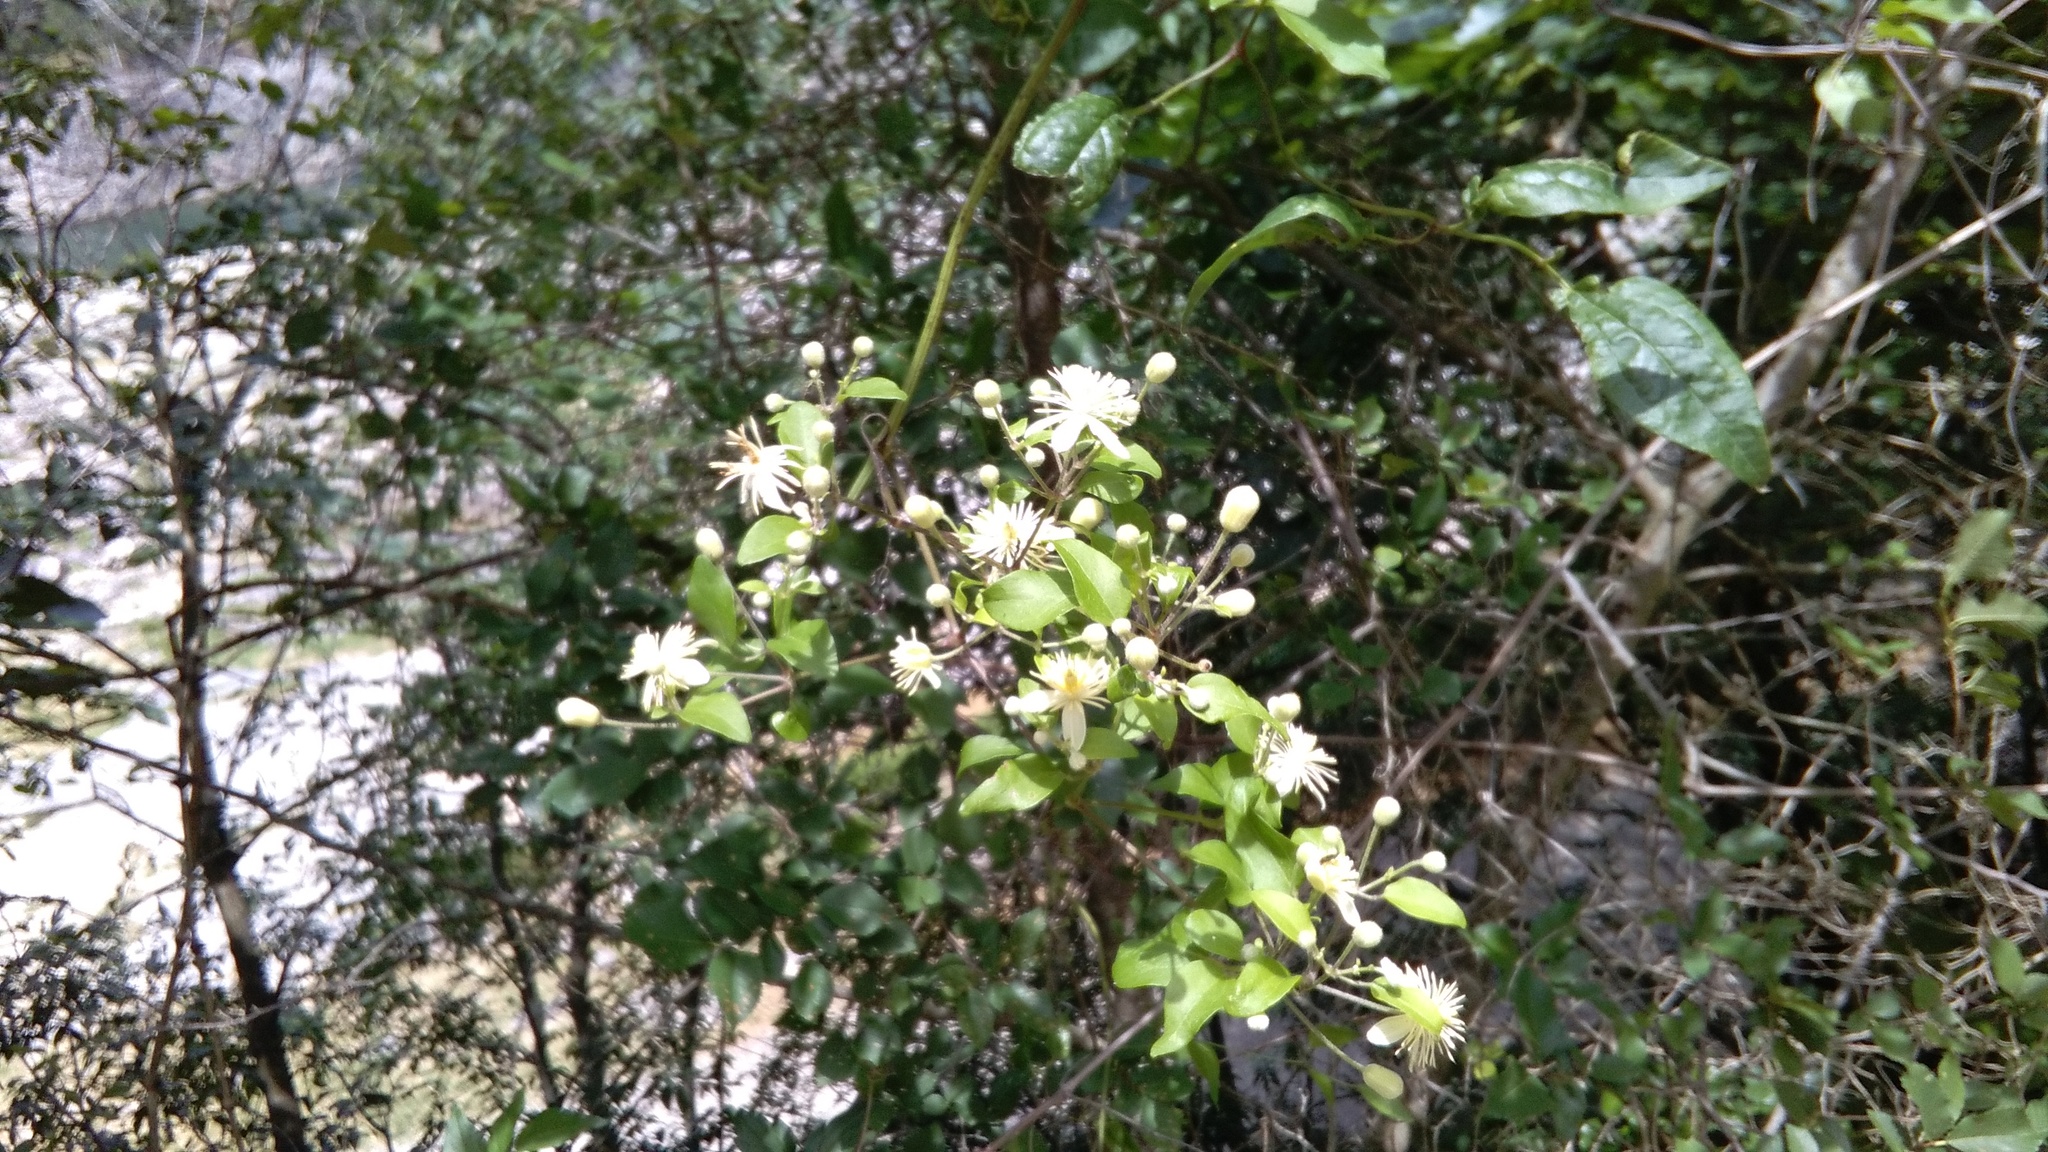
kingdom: Plantae
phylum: Tracheophyta
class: Magnoliopsida
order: Ranunculales
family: Ranunculaceae
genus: Clematis
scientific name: Clematis vitalba
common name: Evergreen clematis
